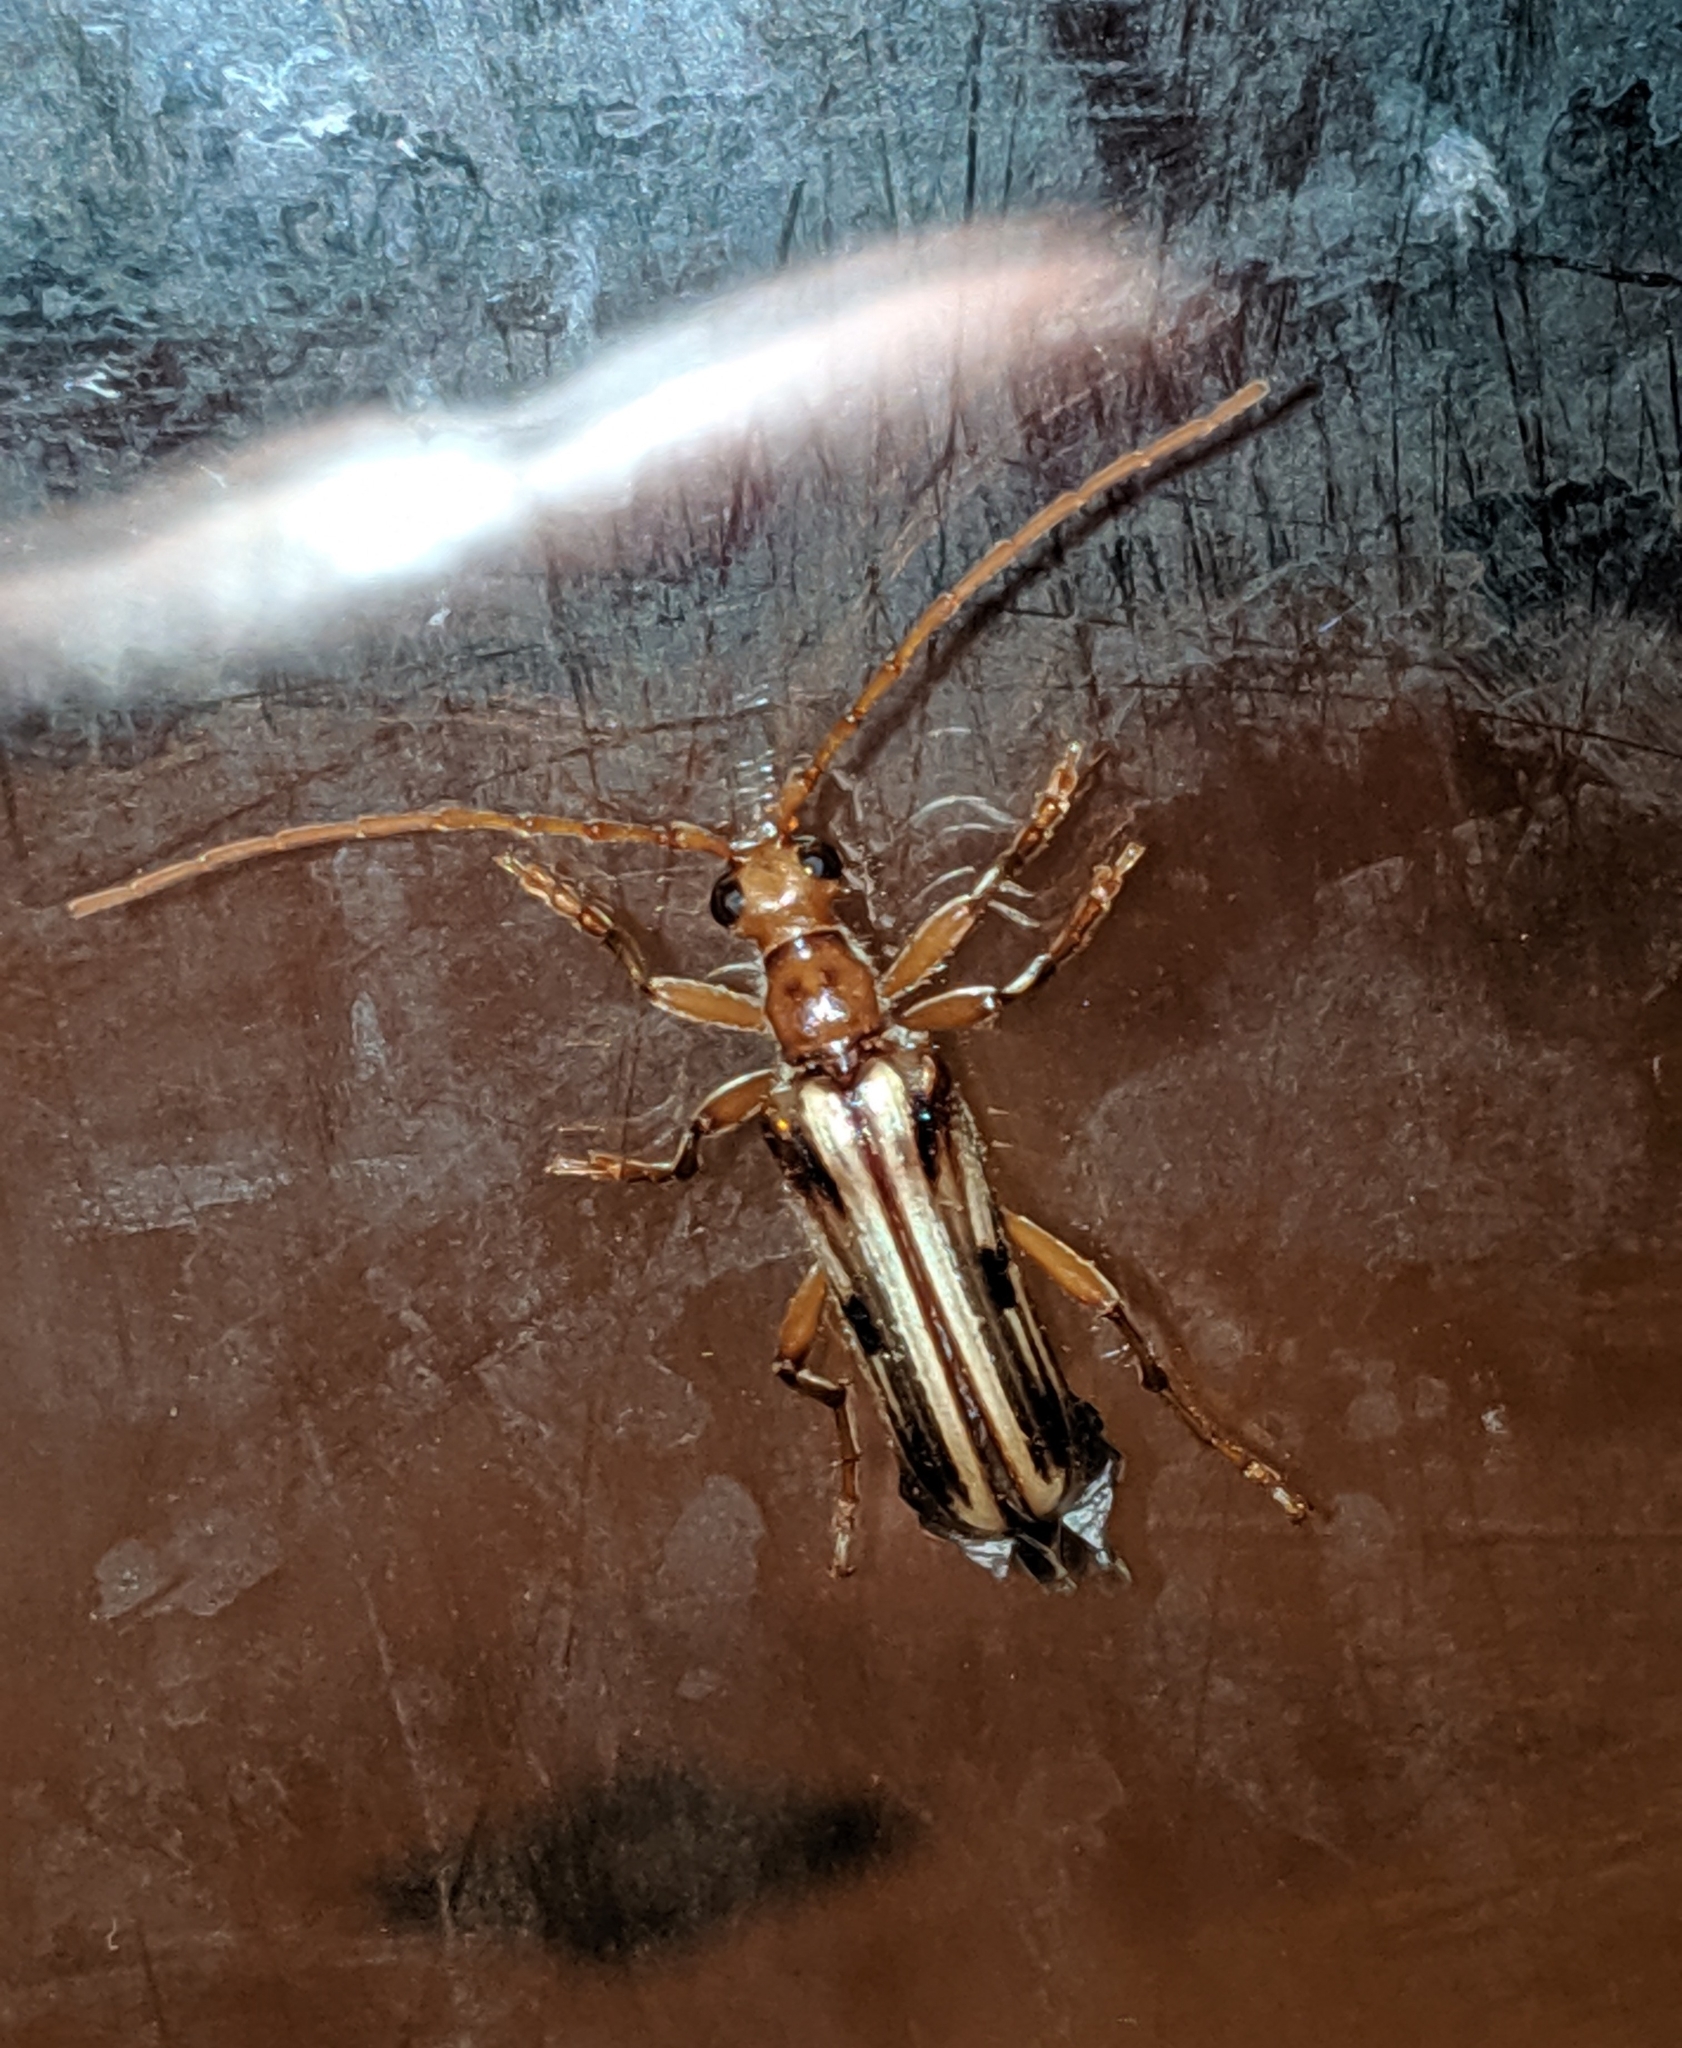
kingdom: Animalia
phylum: Arthropoda
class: Insecta
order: Coleoptera
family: Cerambycidae
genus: Ortholeptura
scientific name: Ortholeptura valida
